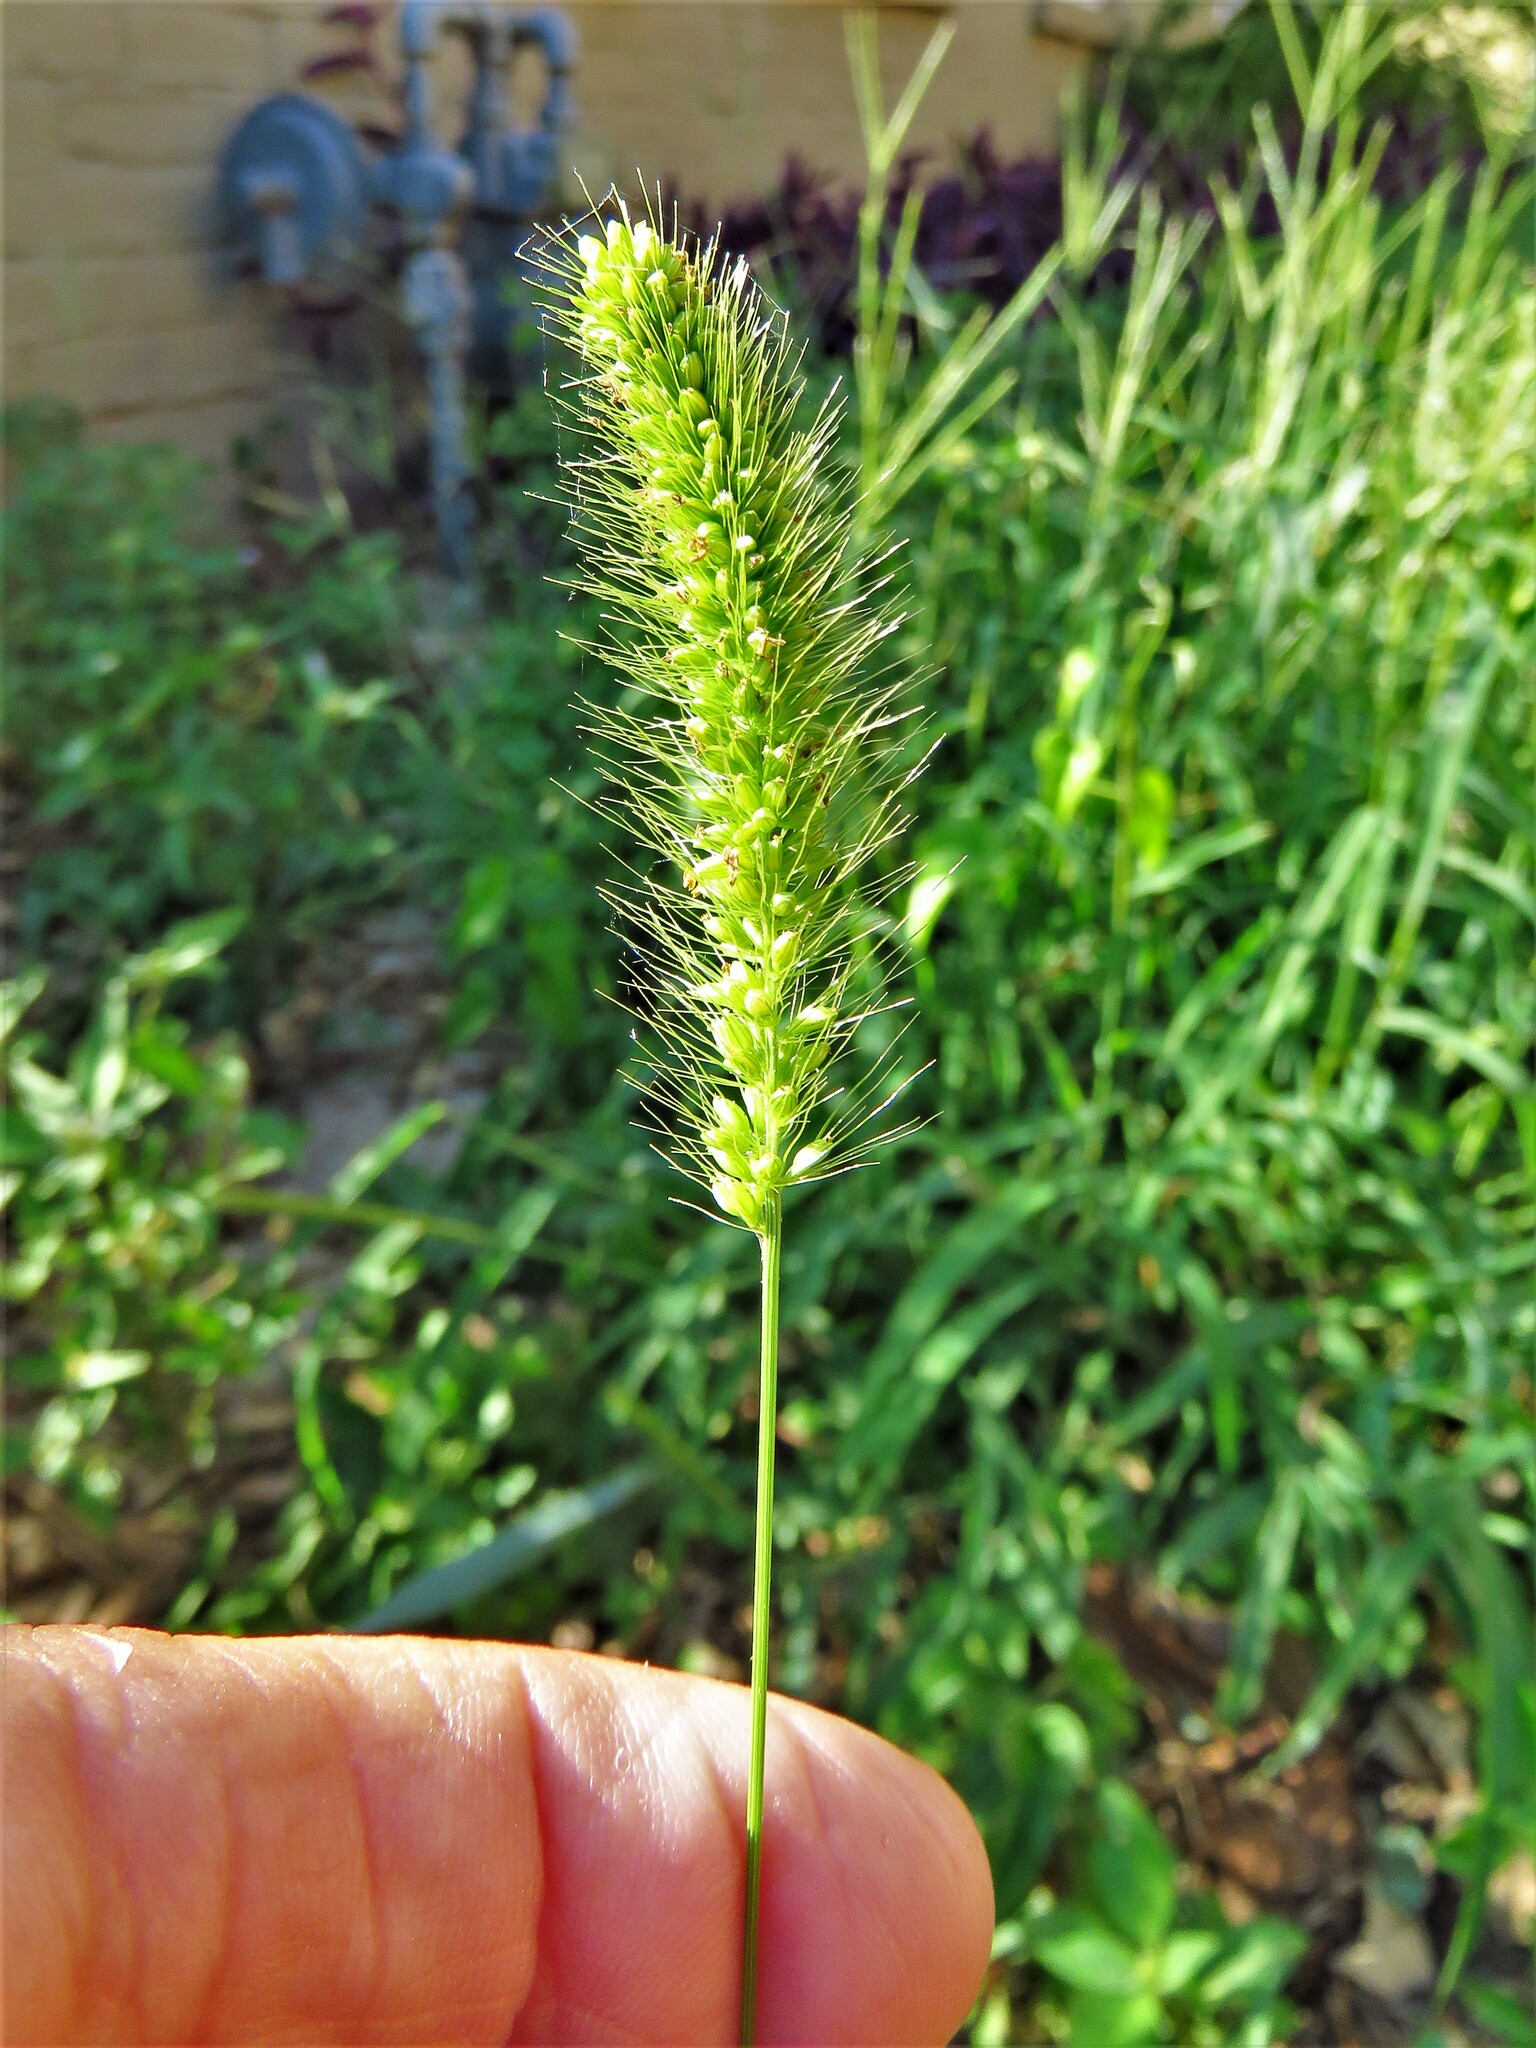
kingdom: Plantae
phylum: Tracheophyta
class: Liliopsida
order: Poales
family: Poaceae
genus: Setaria
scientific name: Setaria viridis
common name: Green bristlegrass
